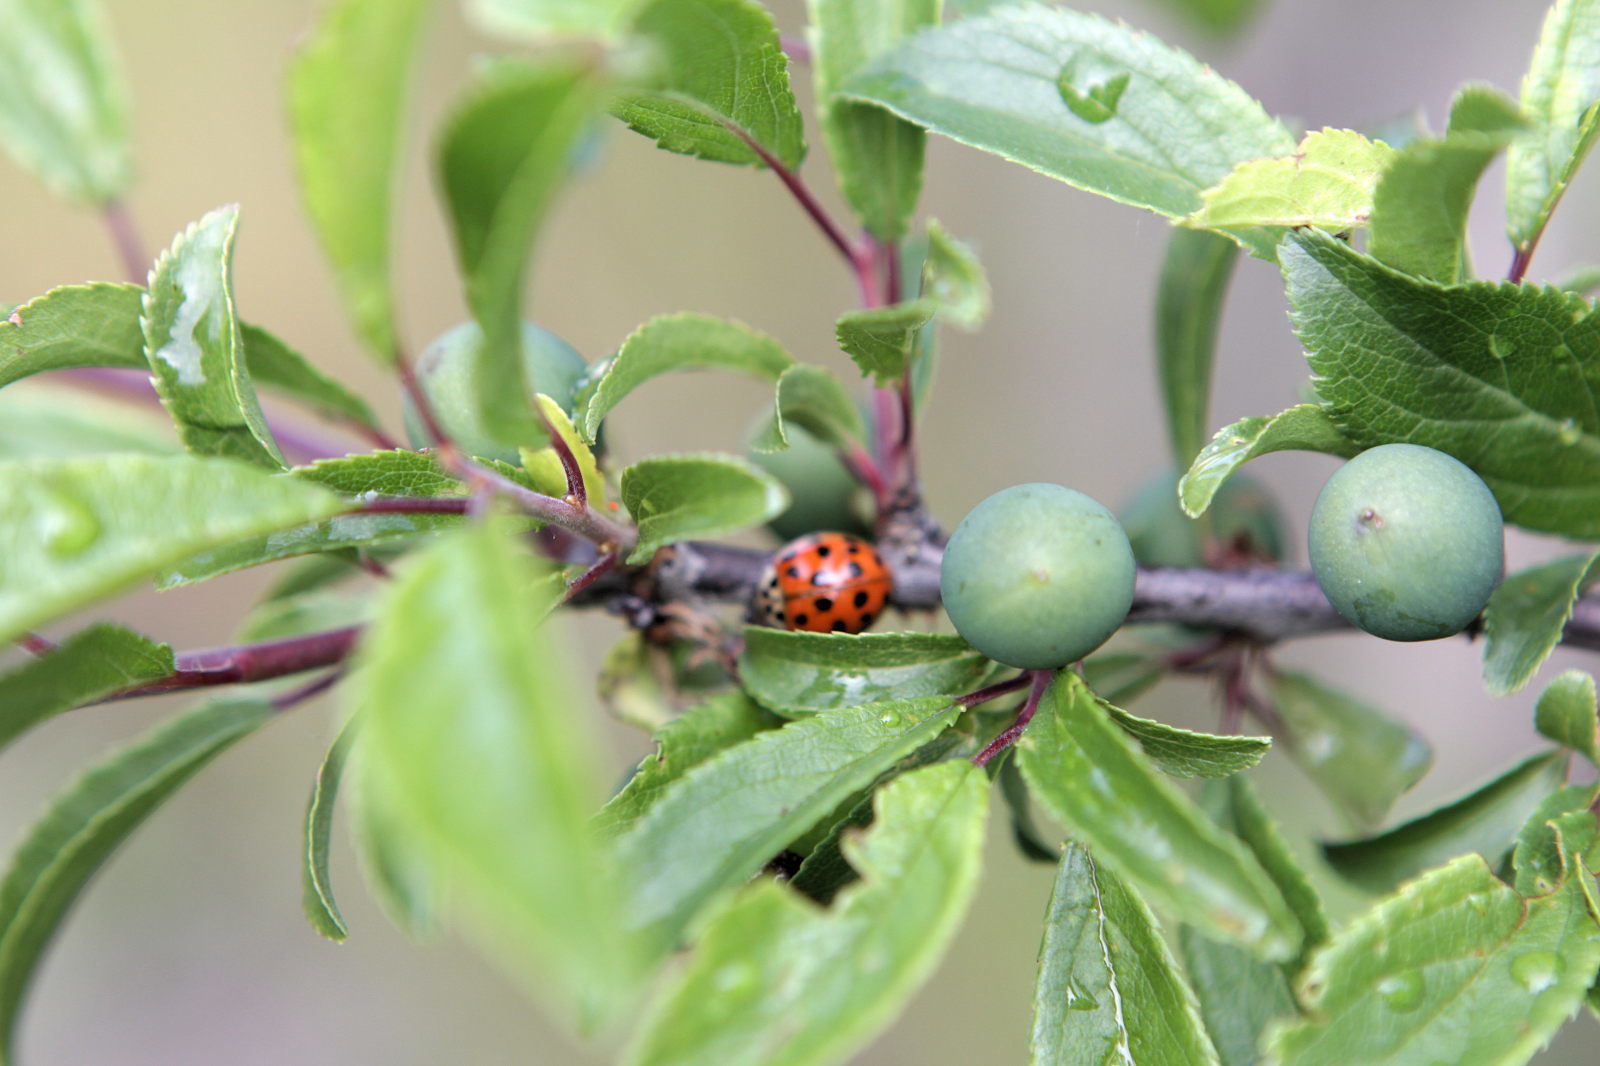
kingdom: Animalia
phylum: Arthropoda
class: Insecta
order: Coleoptera
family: Coccinellidae
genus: Harmonia
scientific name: Harmonia axyridis
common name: Harlequin ladybird
